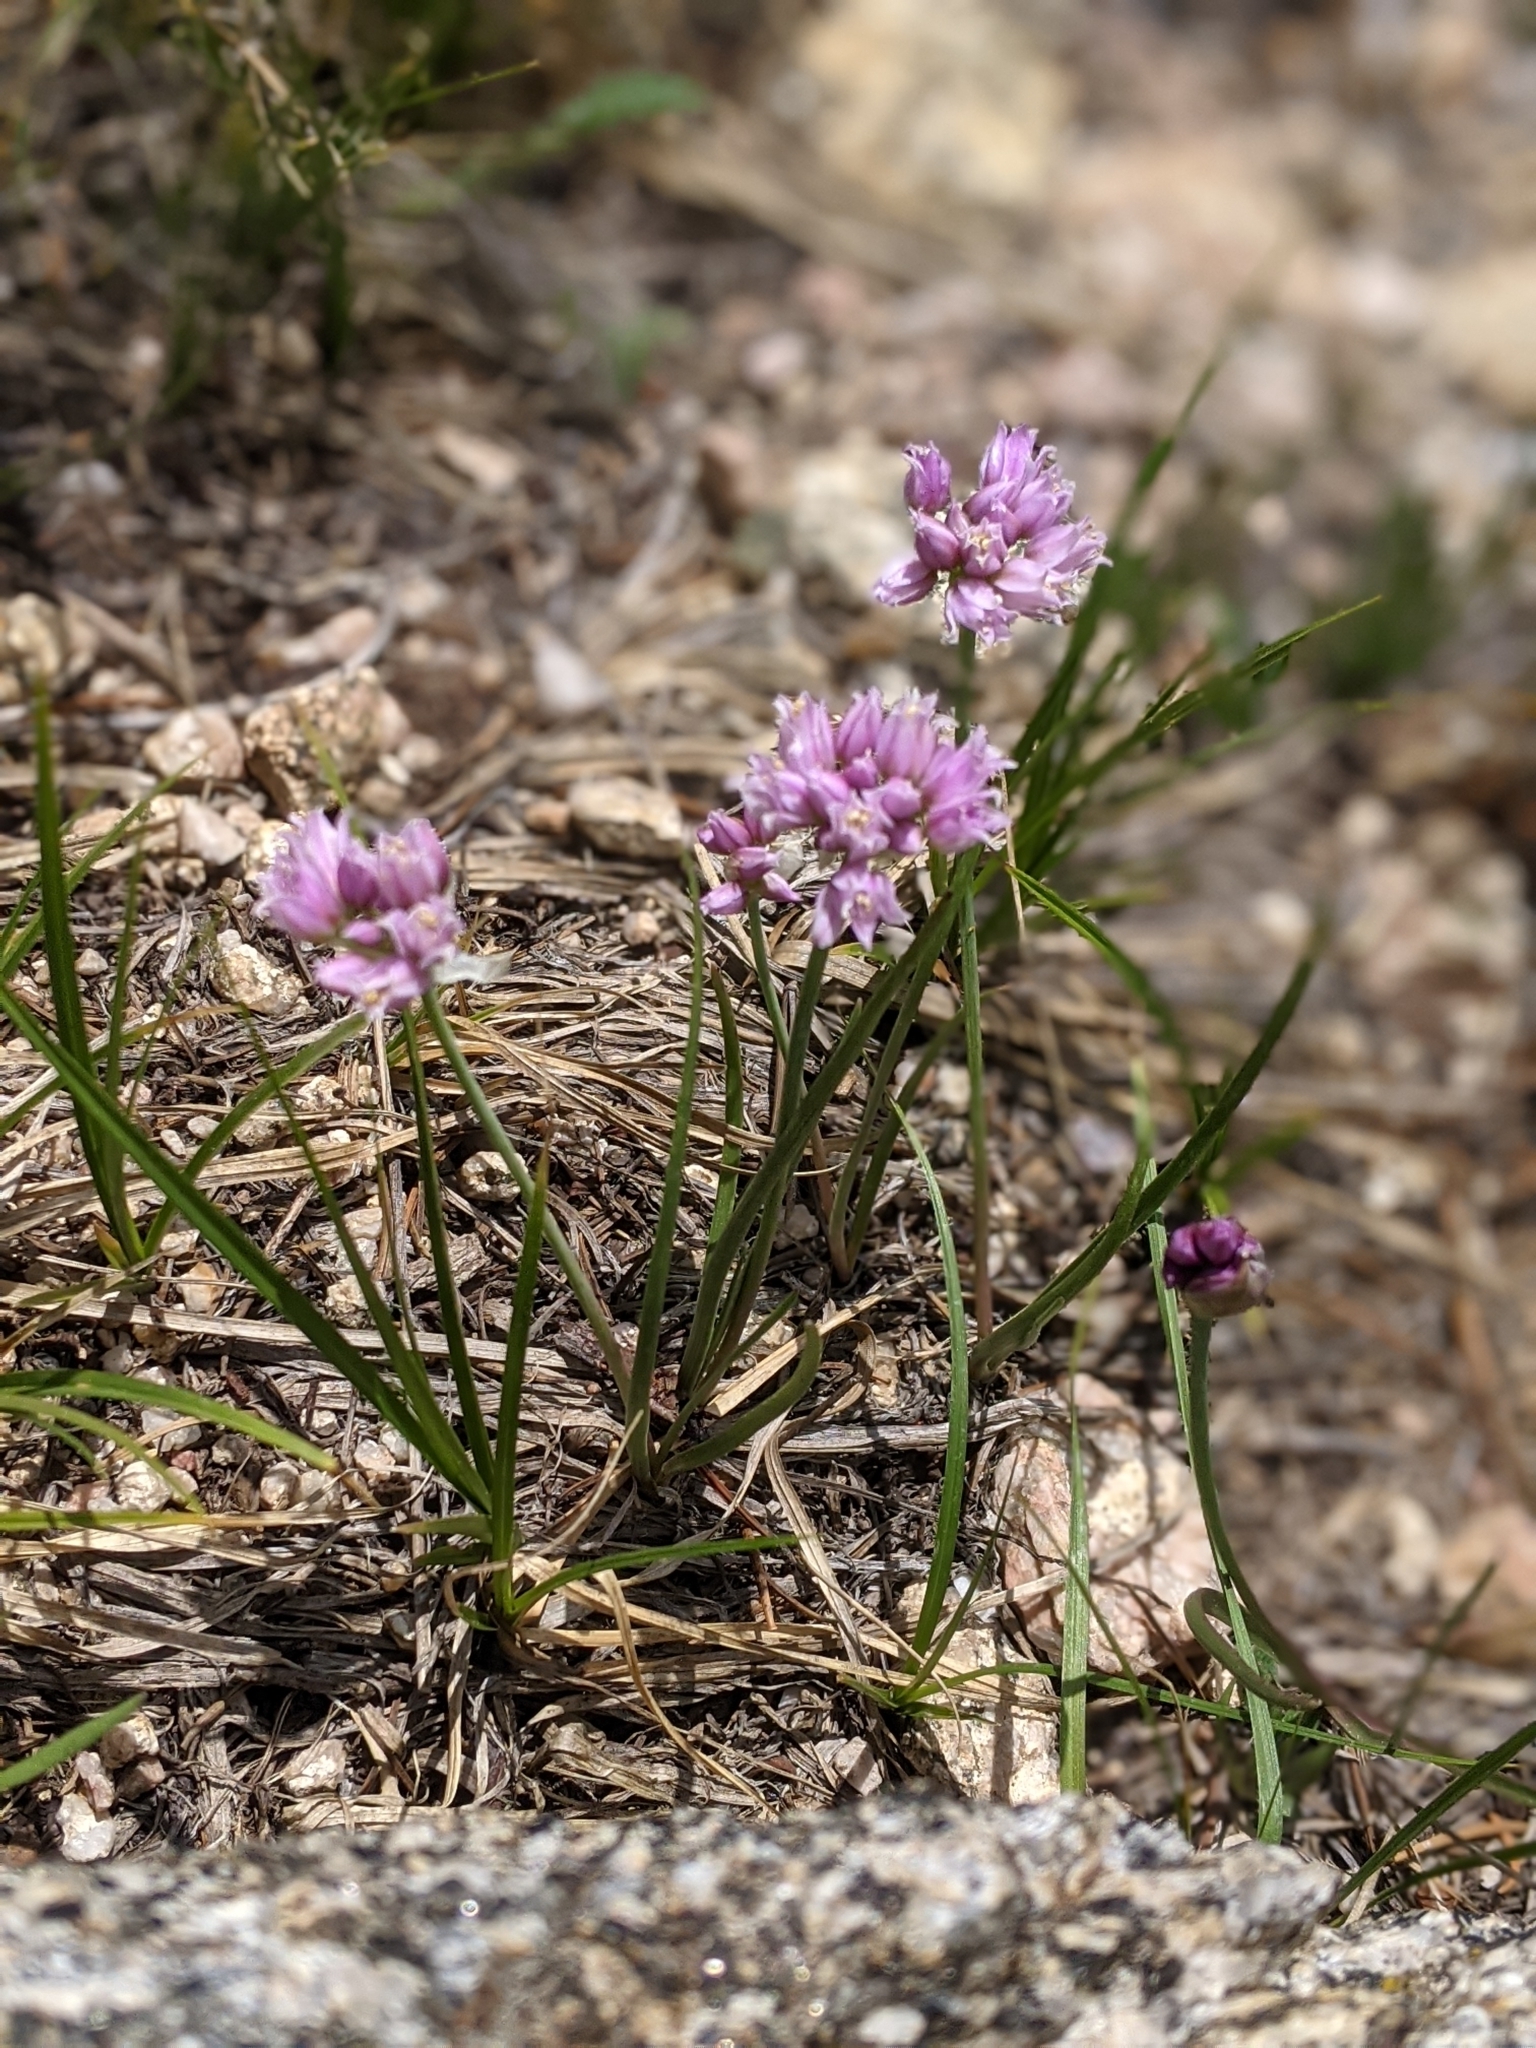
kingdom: Plantae
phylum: Tracheophyta
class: Liliopsida
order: Asparagales
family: Amaryllidaceae
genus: Allium
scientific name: Allium geyeri
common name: Geyer's onion
